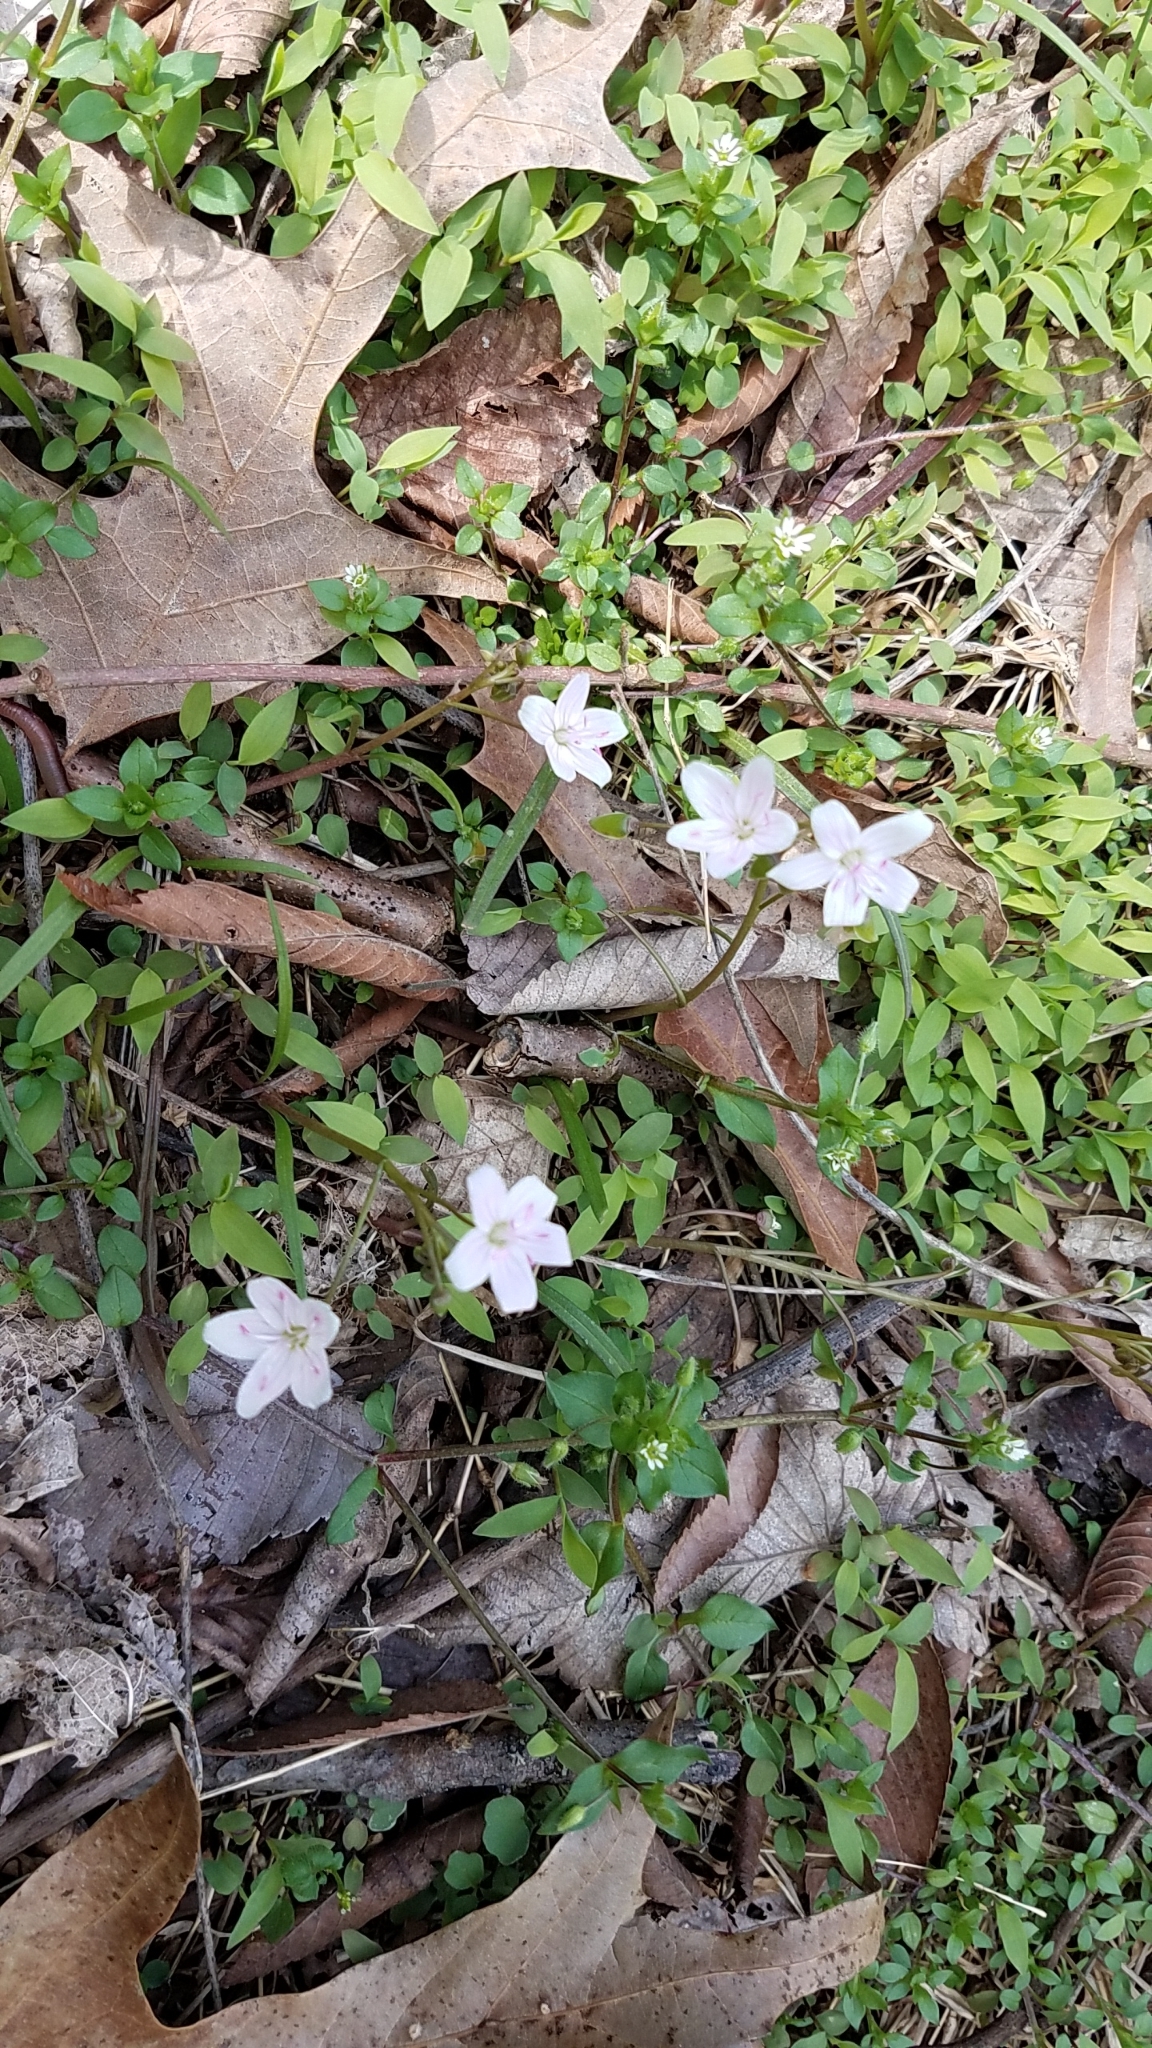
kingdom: Plantae
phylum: Tracheophyta
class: Magnoliopsida
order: Caryophyllales
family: Montiaceae
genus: Claytonia
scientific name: Claytonia virginica
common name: Virginia springbeauty
